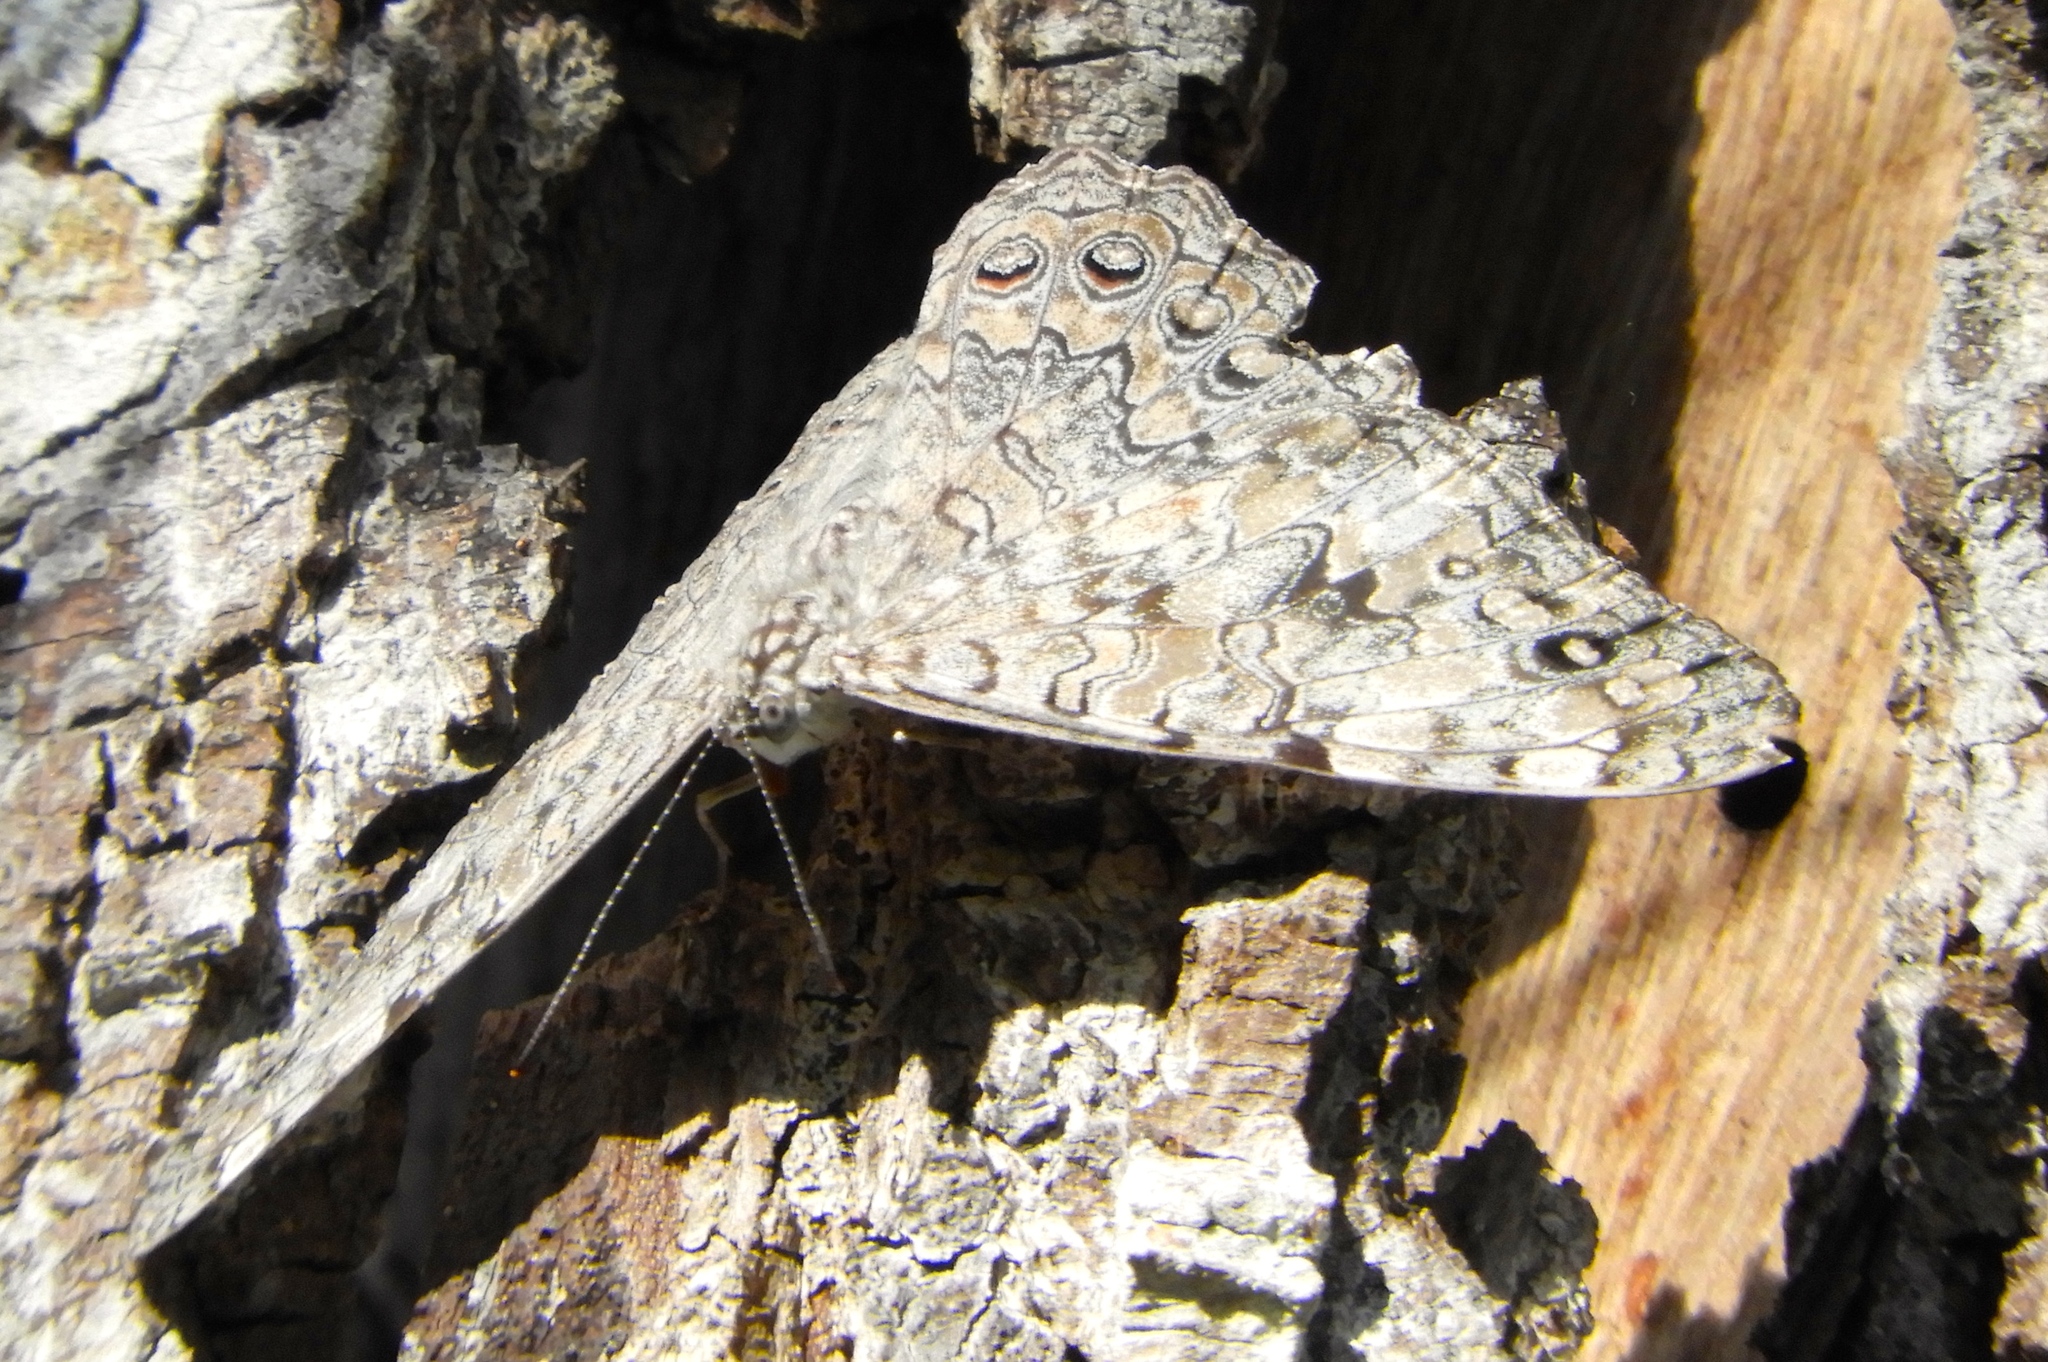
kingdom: Animalia
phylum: Arthropoda
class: Insecta
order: Lepidoptera
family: Nymphalidae
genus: Hamadryas
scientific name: Hamadryas februa
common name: Gray cracker
